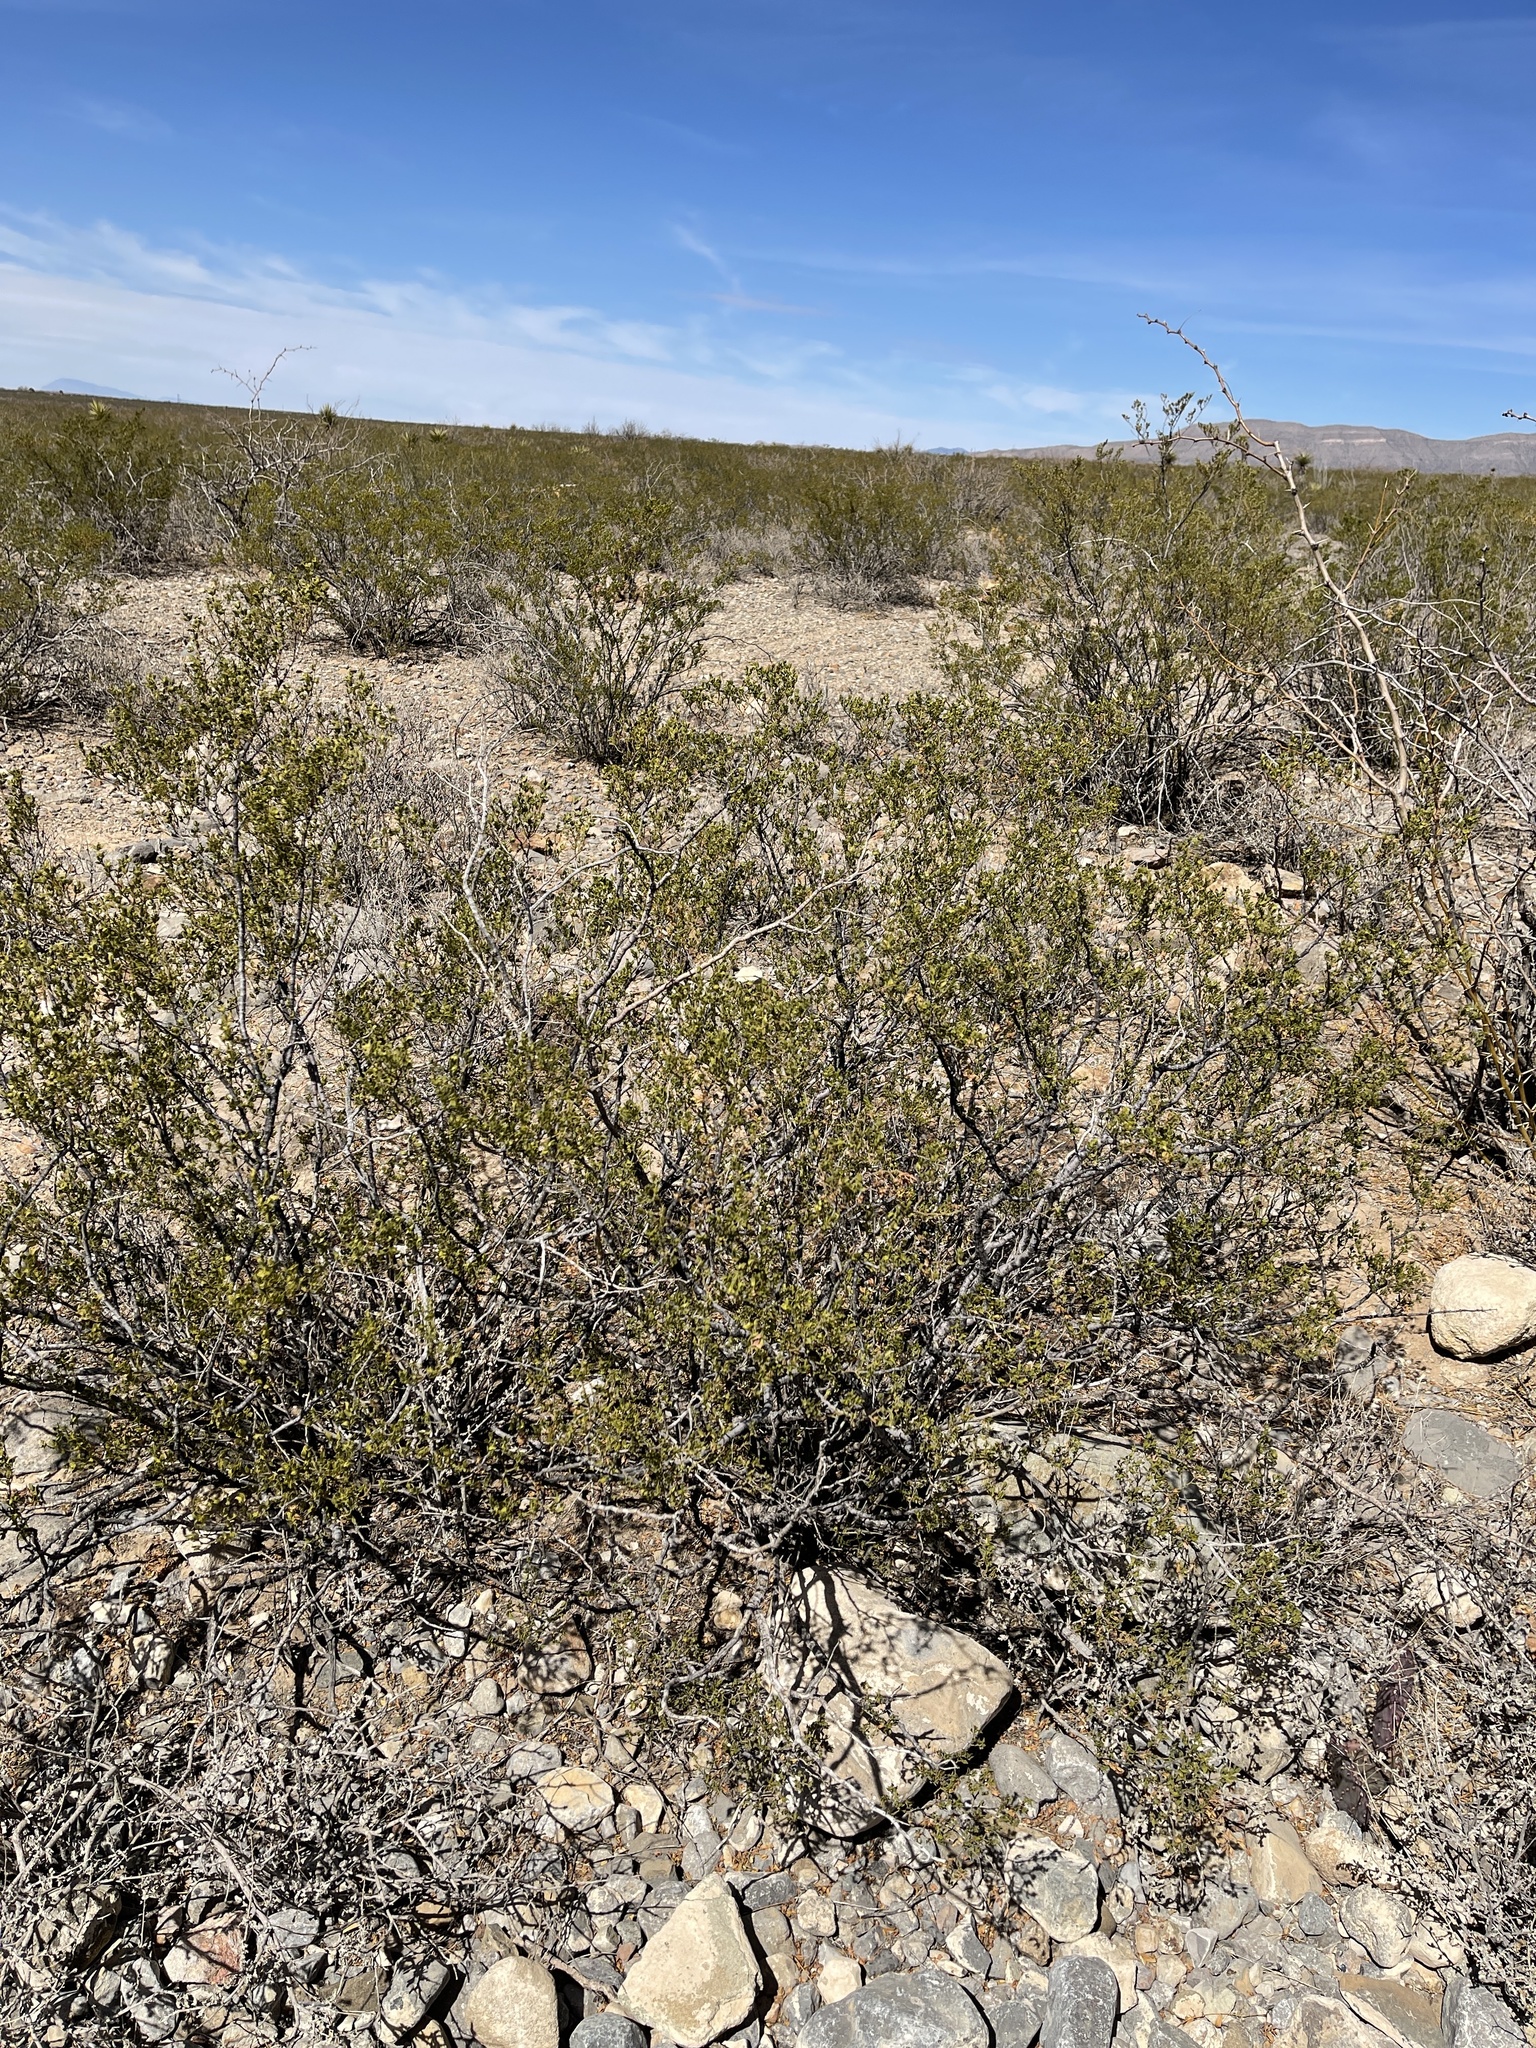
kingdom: Plantae
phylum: Tracheophyta
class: Magnoliopsida
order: Zygophyllales
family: Zygophyllaceae
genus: Larrea
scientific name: Larrea tridentata
